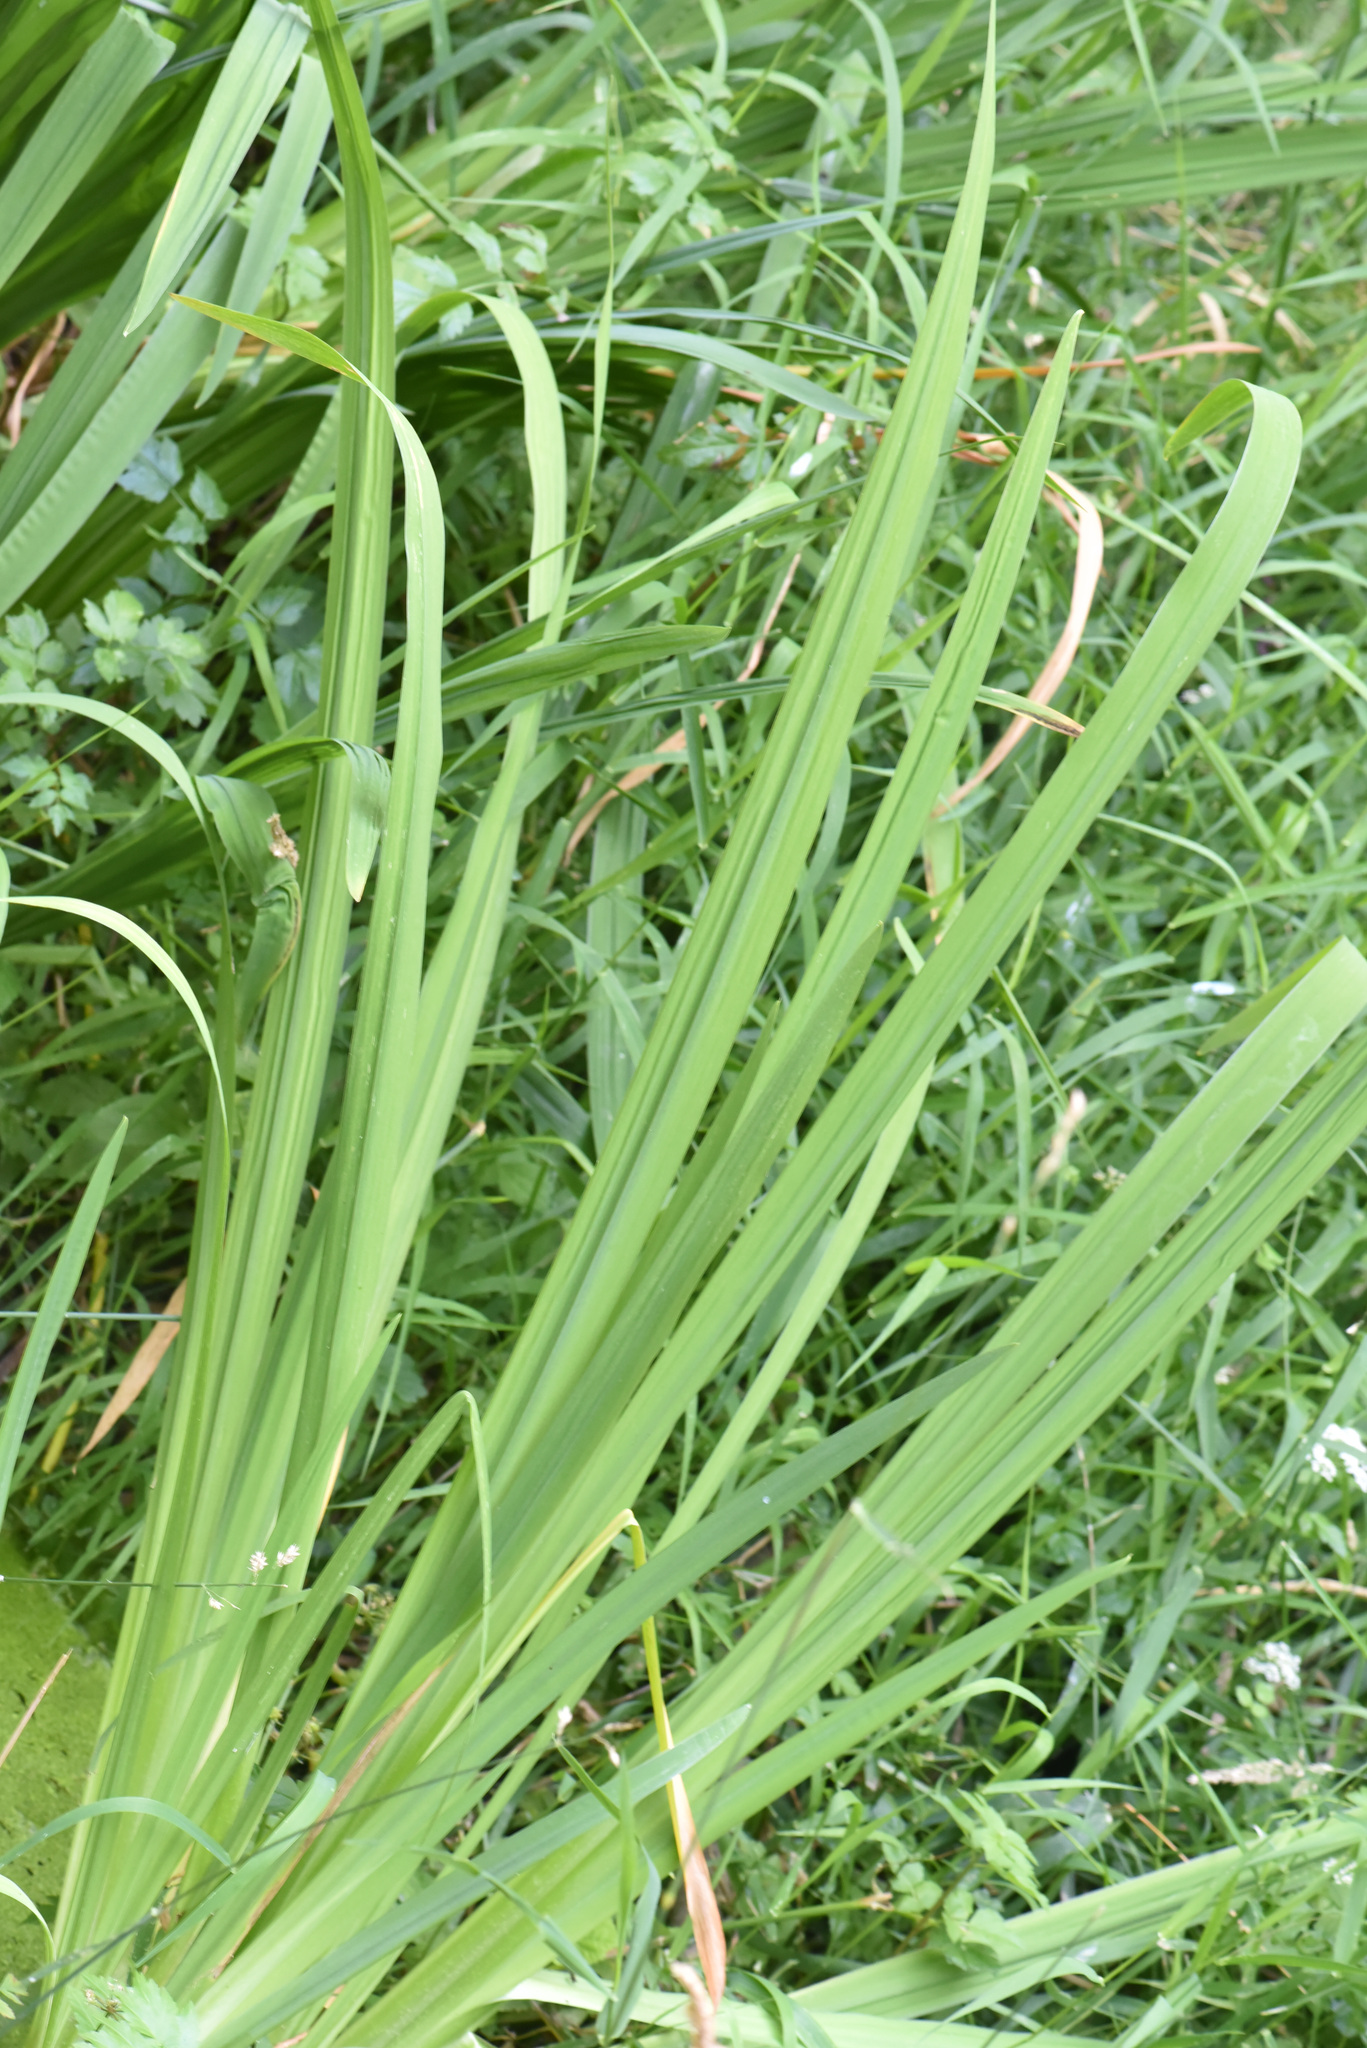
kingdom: Plantae
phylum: Tracheophyta
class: Liliopsida
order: Asparagales
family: Iridaceae
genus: Iris
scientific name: Iris pseudacorus
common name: Yellow flag
